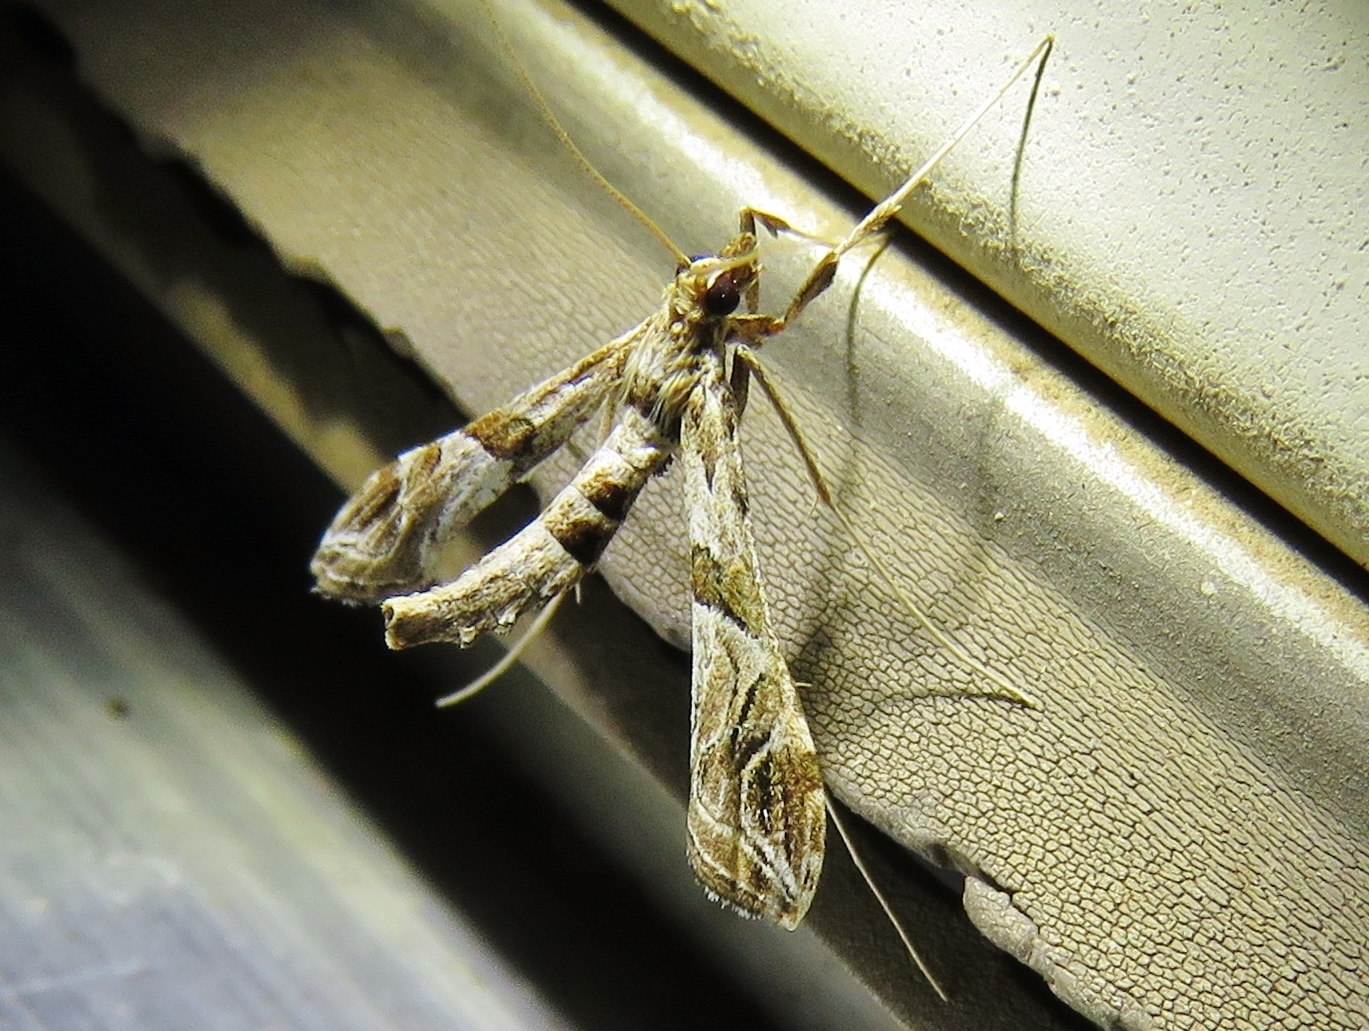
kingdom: Animalia
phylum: Arthropoda
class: Insecta
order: Lepidoptera
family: Crambidae
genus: Lineodes
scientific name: Lineodes interrupta
